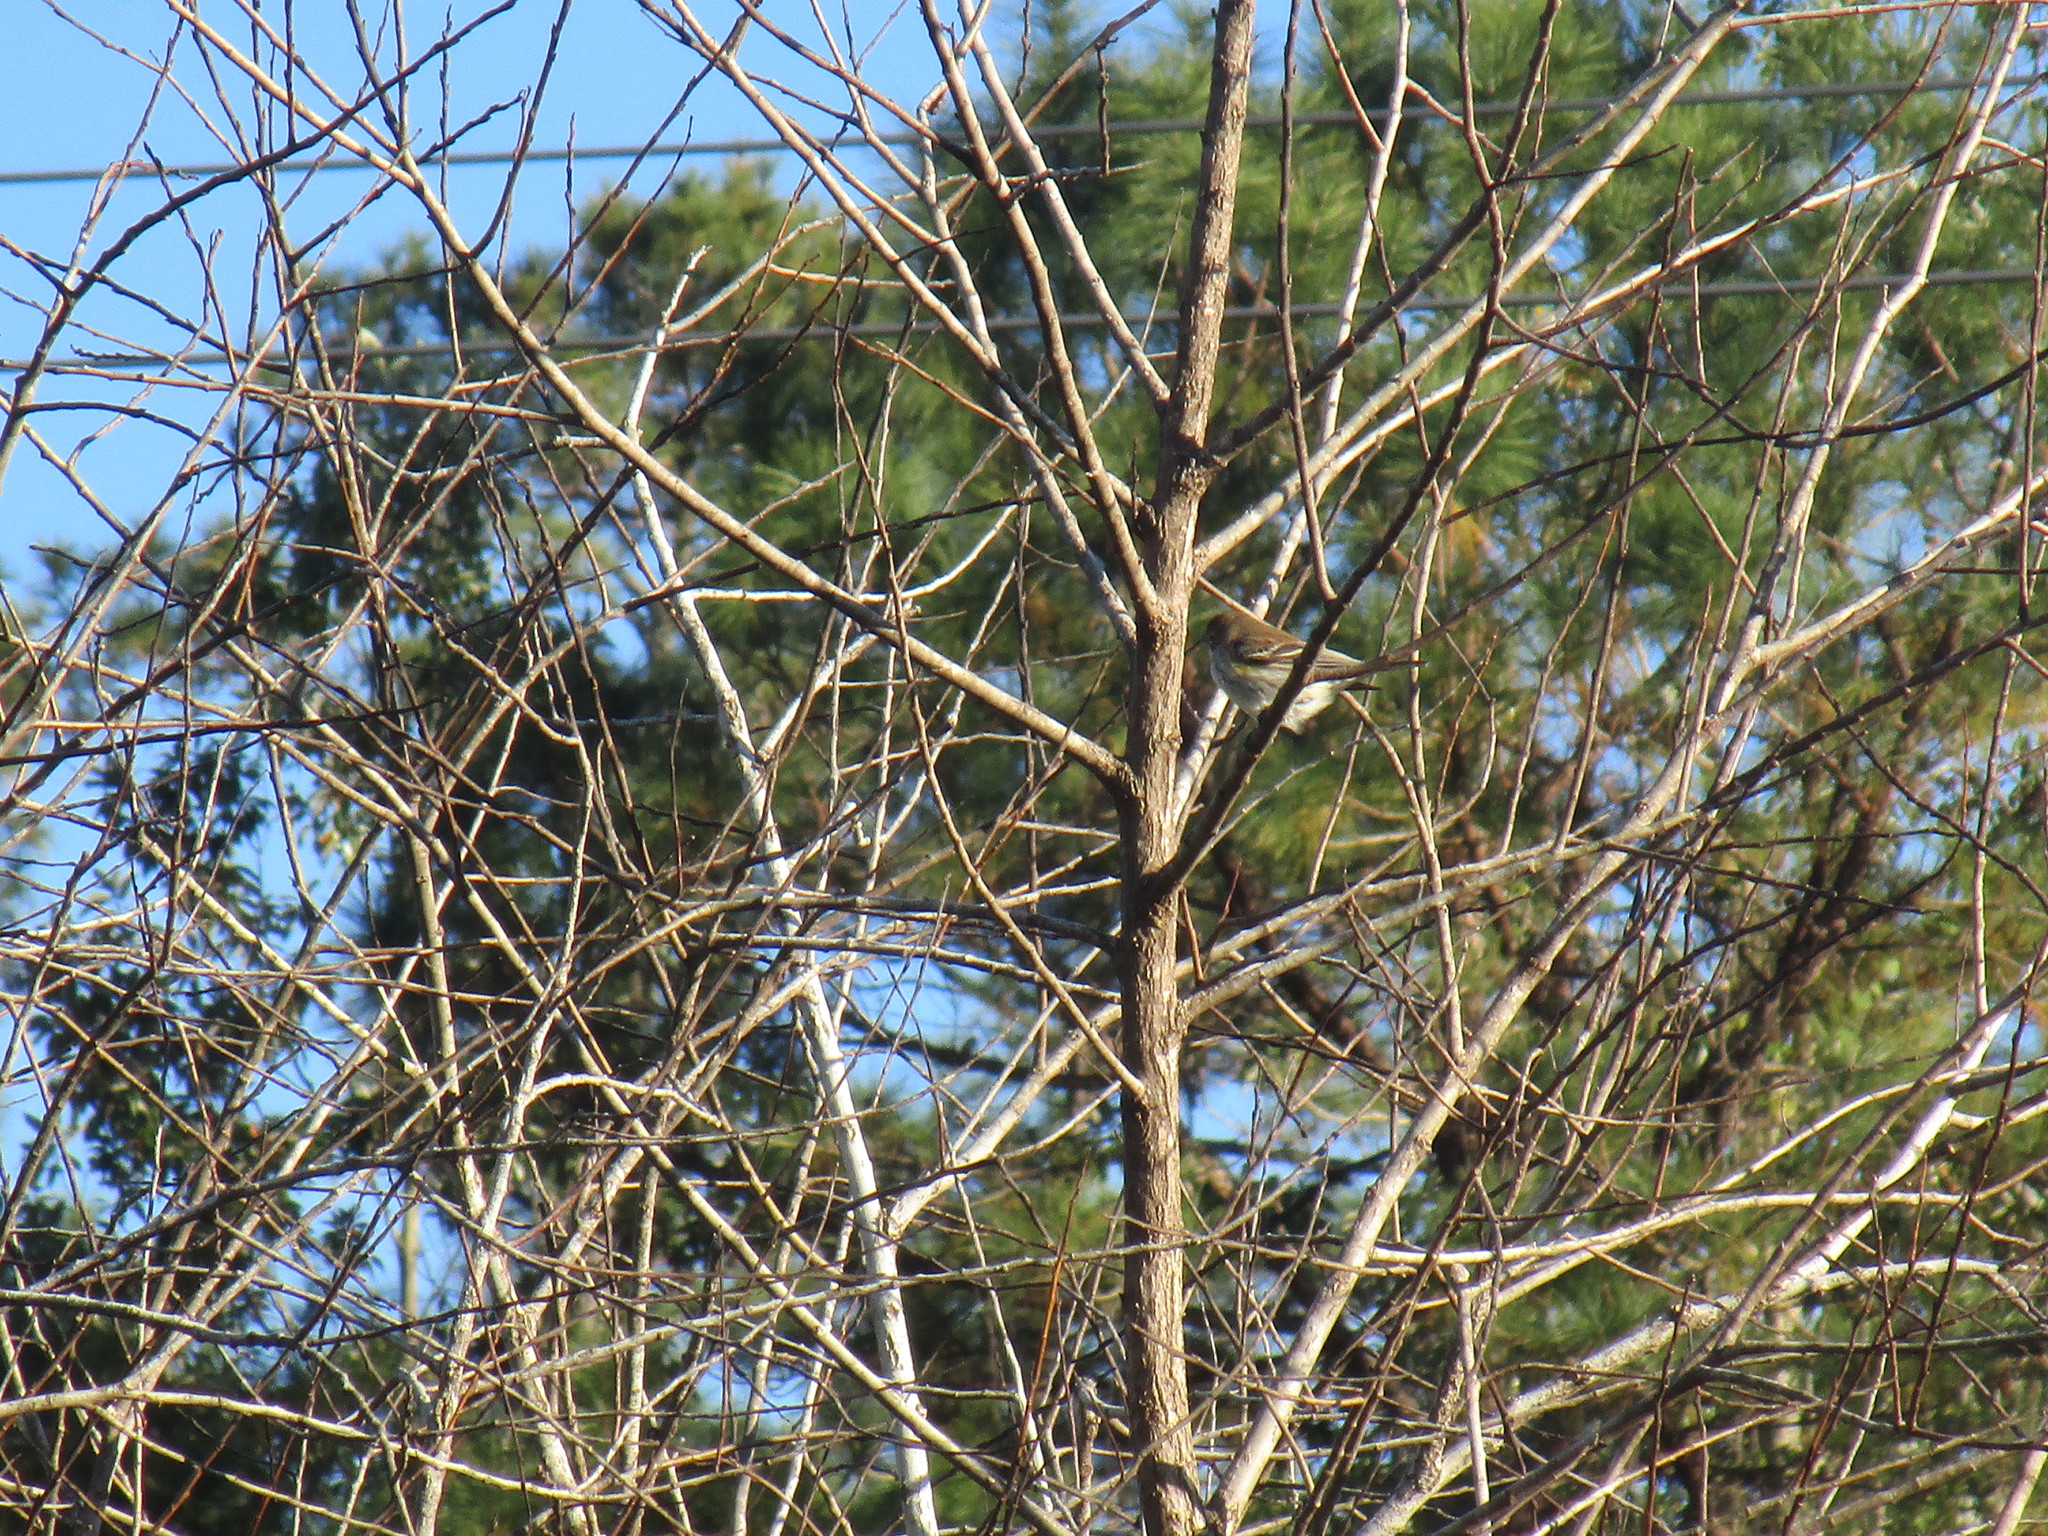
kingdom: Animalia
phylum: Chordata
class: Aves
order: Passeriformes
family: Parulidae
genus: Setophaga
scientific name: Setophaga coronata
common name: Myrtle warbler
